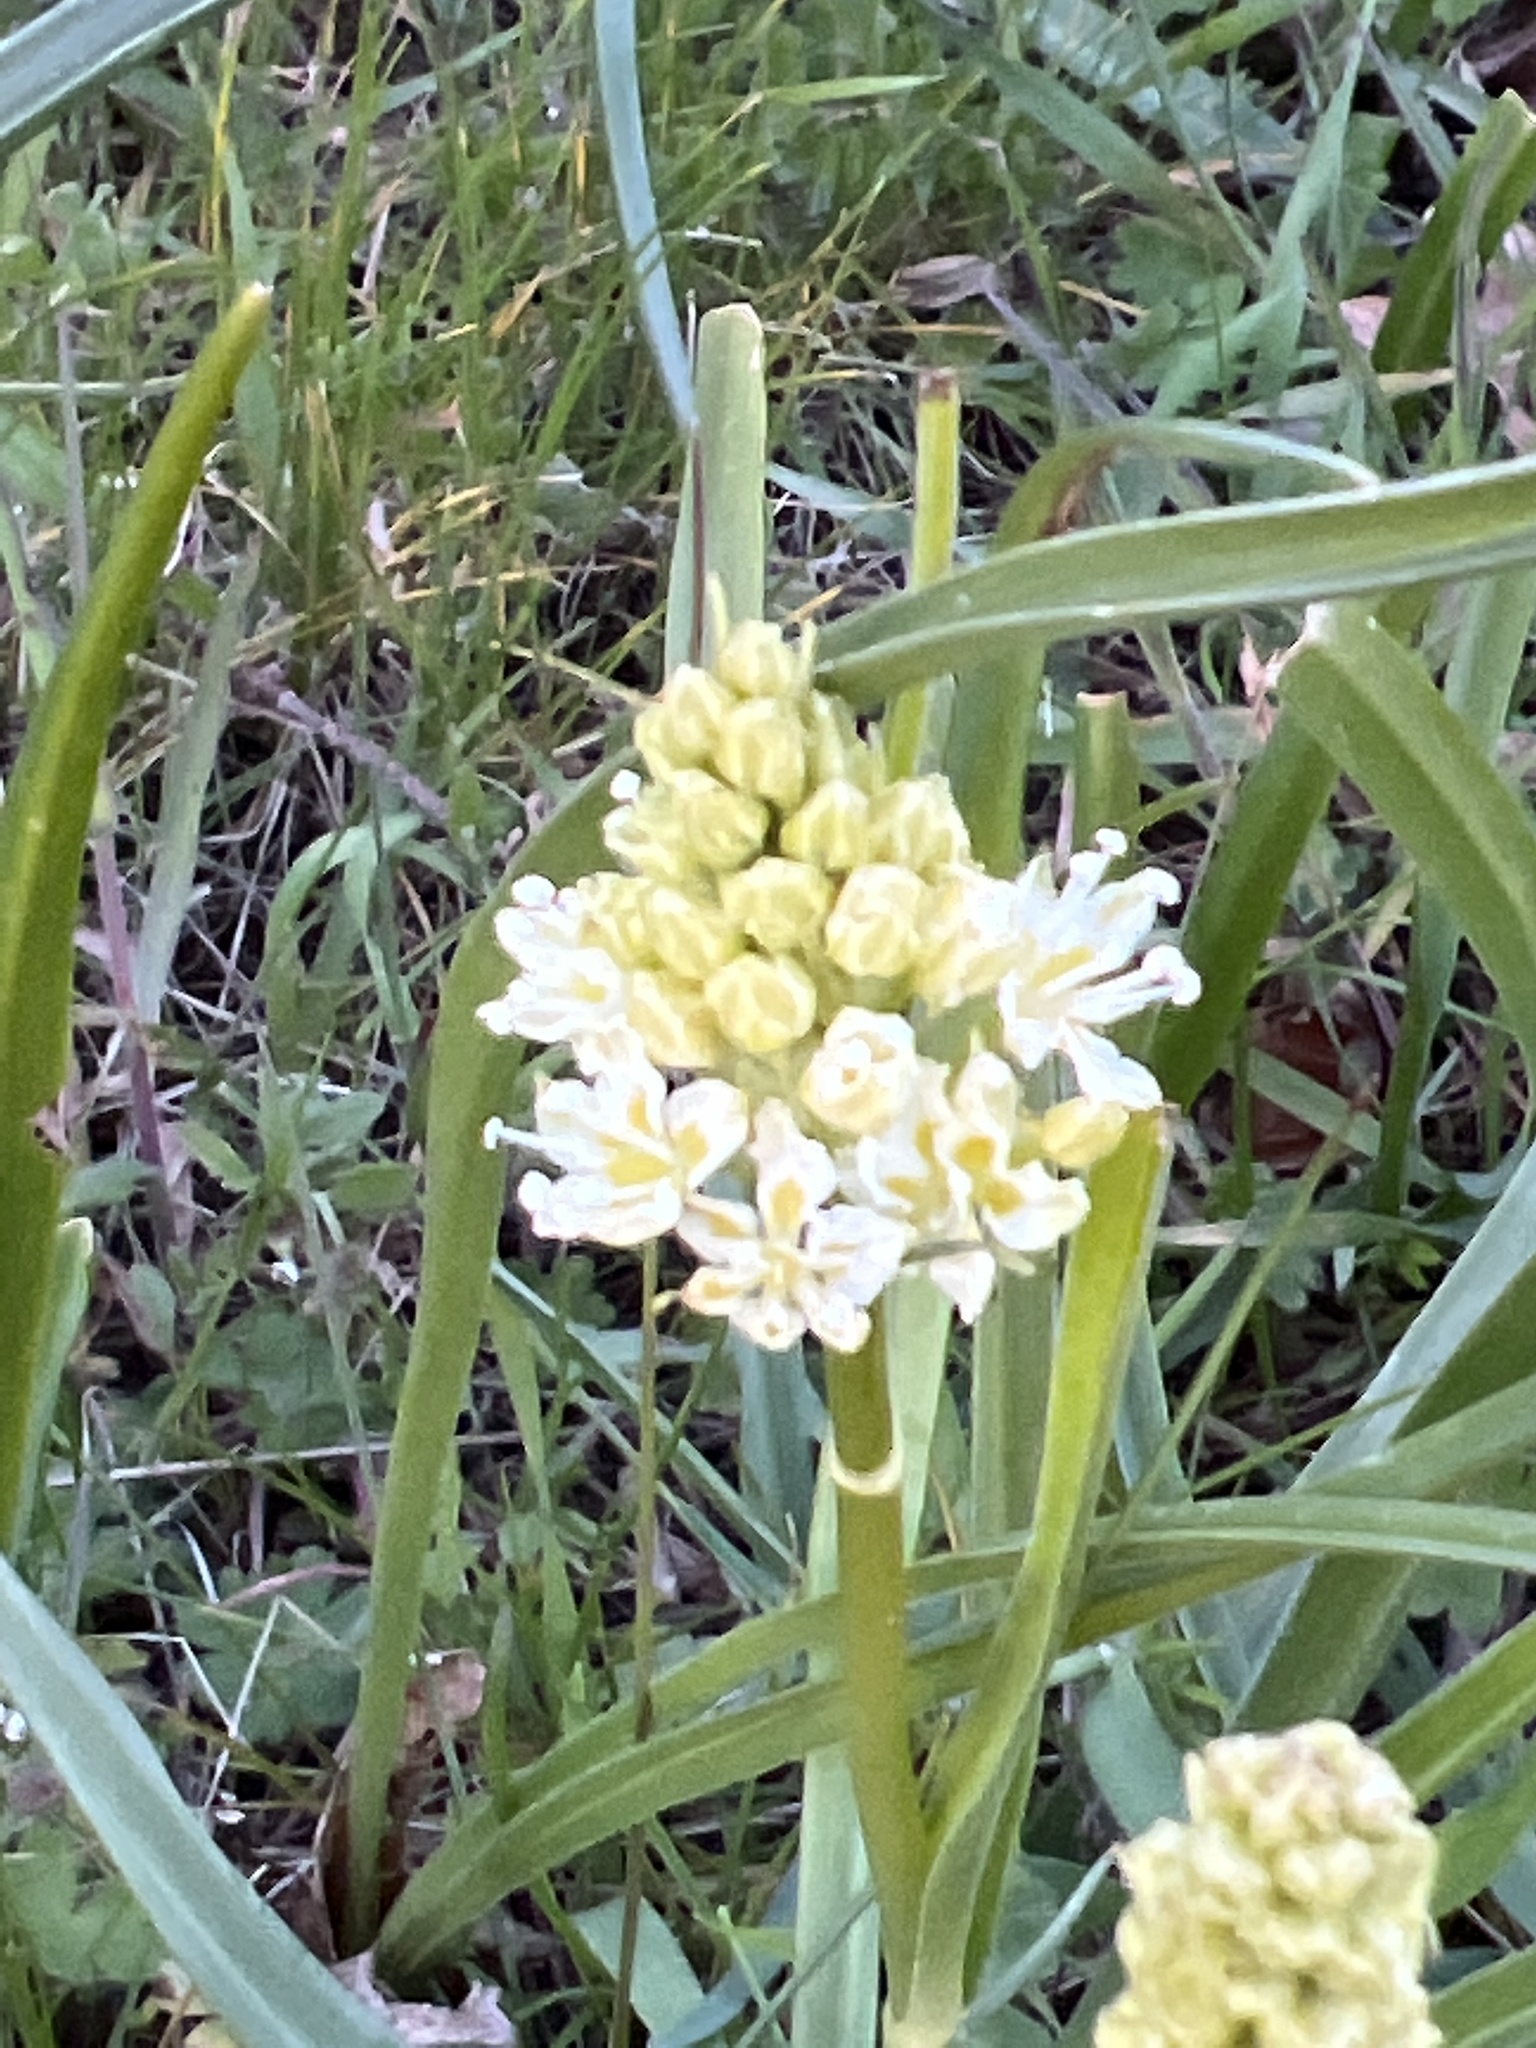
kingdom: Plantae
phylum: Tracheophyta
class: Liliopsida
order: Liliales
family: Melanthiaceae
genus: Toxicoscordion
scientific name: Toxicoscordion venenosum
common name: Meadow death camas
